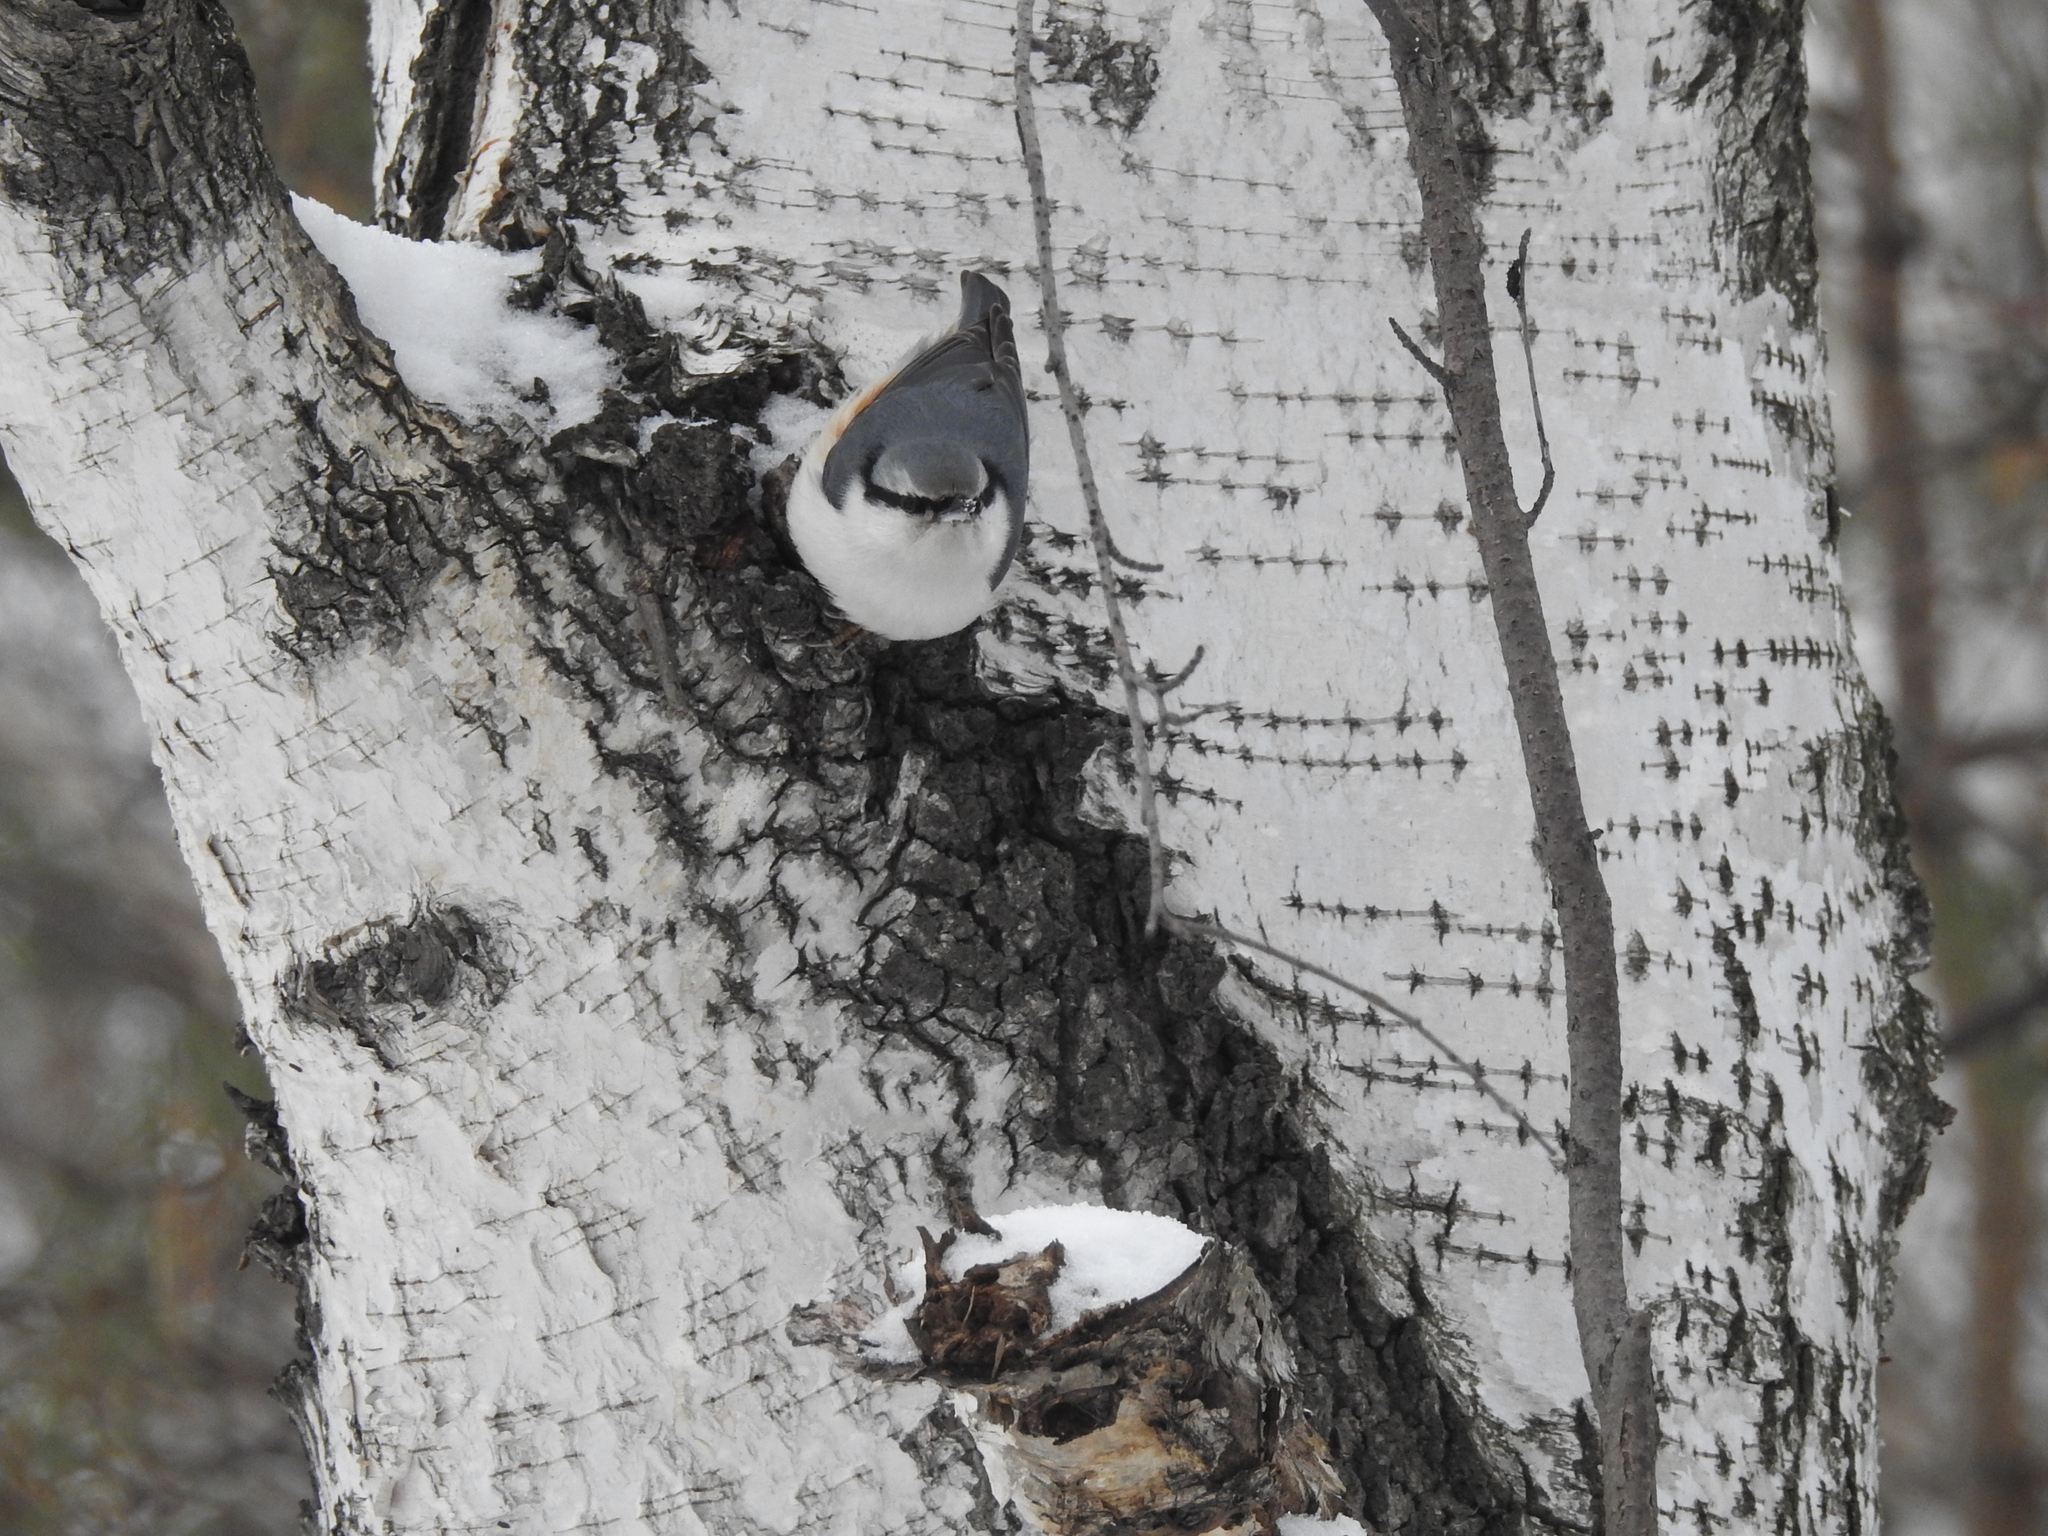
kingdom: Animalia
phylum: Chordata
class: Aves
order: Passeriformes
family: Sittidae
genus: Sitta
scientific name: Sitta europaea
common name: Eurasian nuthatch
